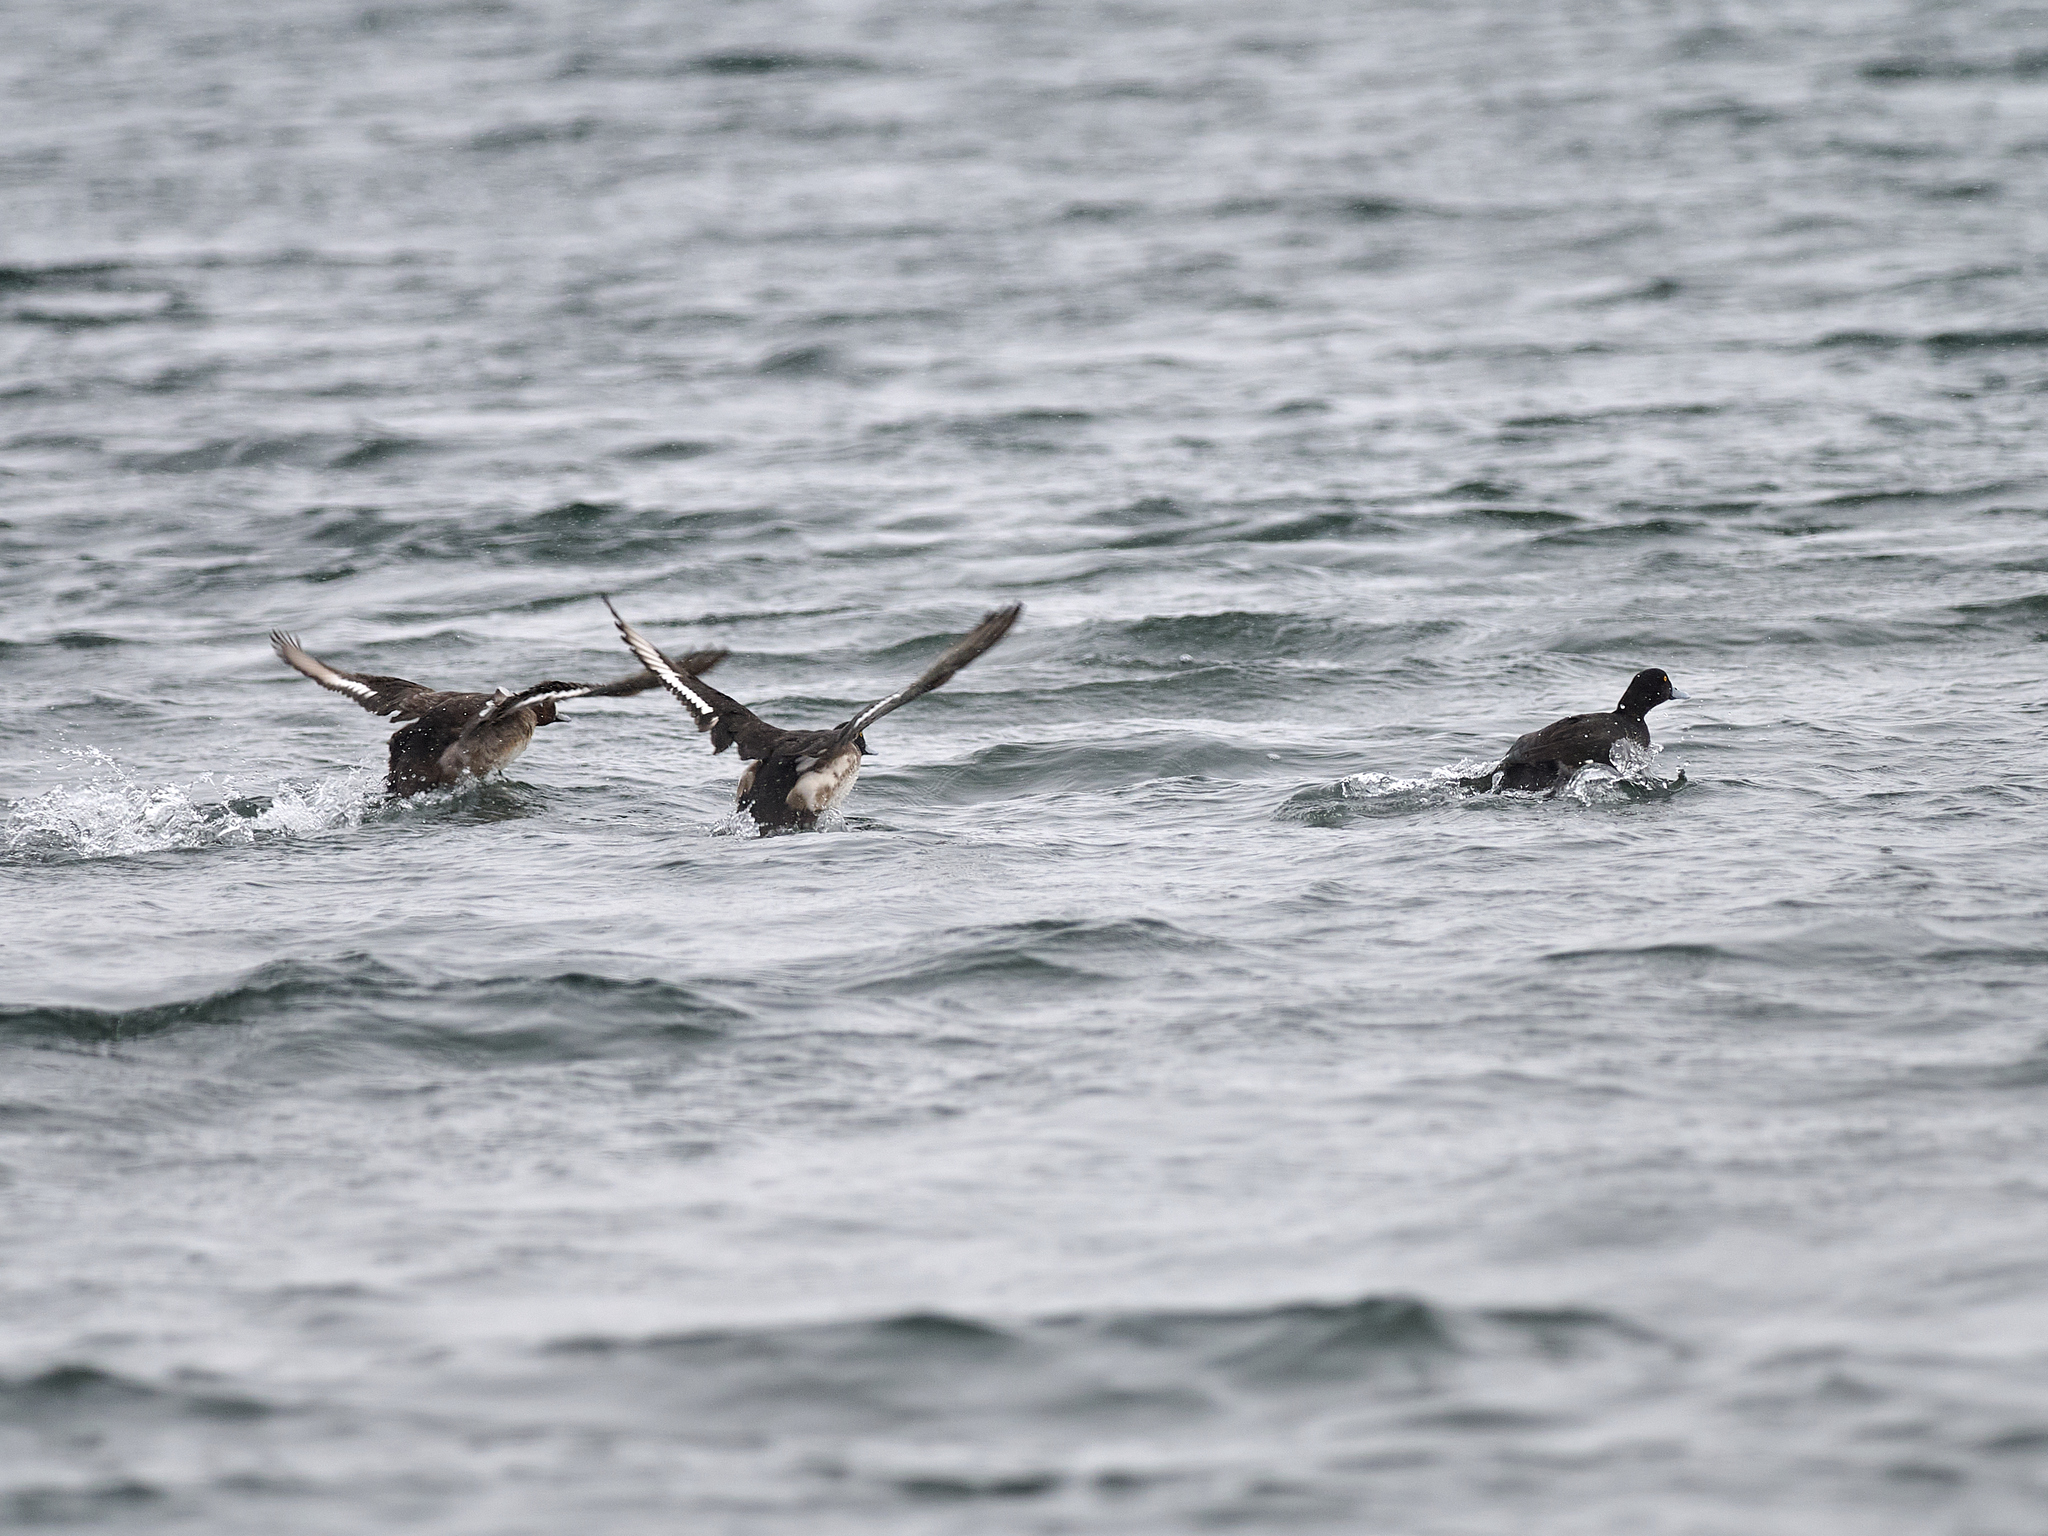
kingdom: Animalia
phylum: Chordata
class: Aves
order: Anseriformes
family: Anatidae
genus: Aythya
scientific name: Aythya fuligula
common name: Tufted duck
